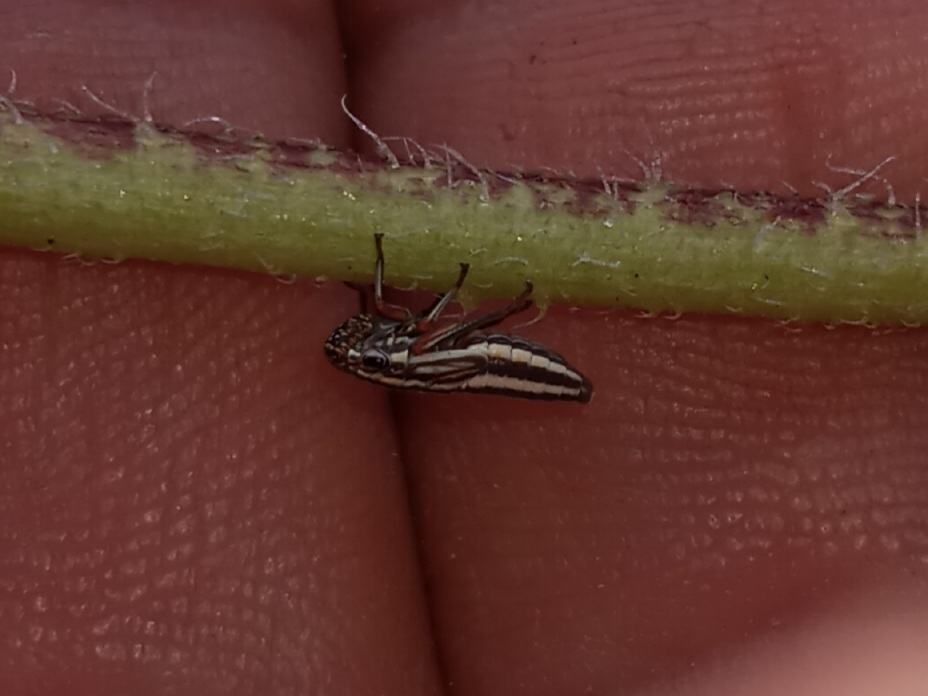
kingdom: Animalia
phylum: Arthropoda
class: Insecta
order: Hemiptera
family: Cicadellidae
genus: Cuerna
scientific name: Cuerna costalis
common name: Lateral-lined sharpshooter
